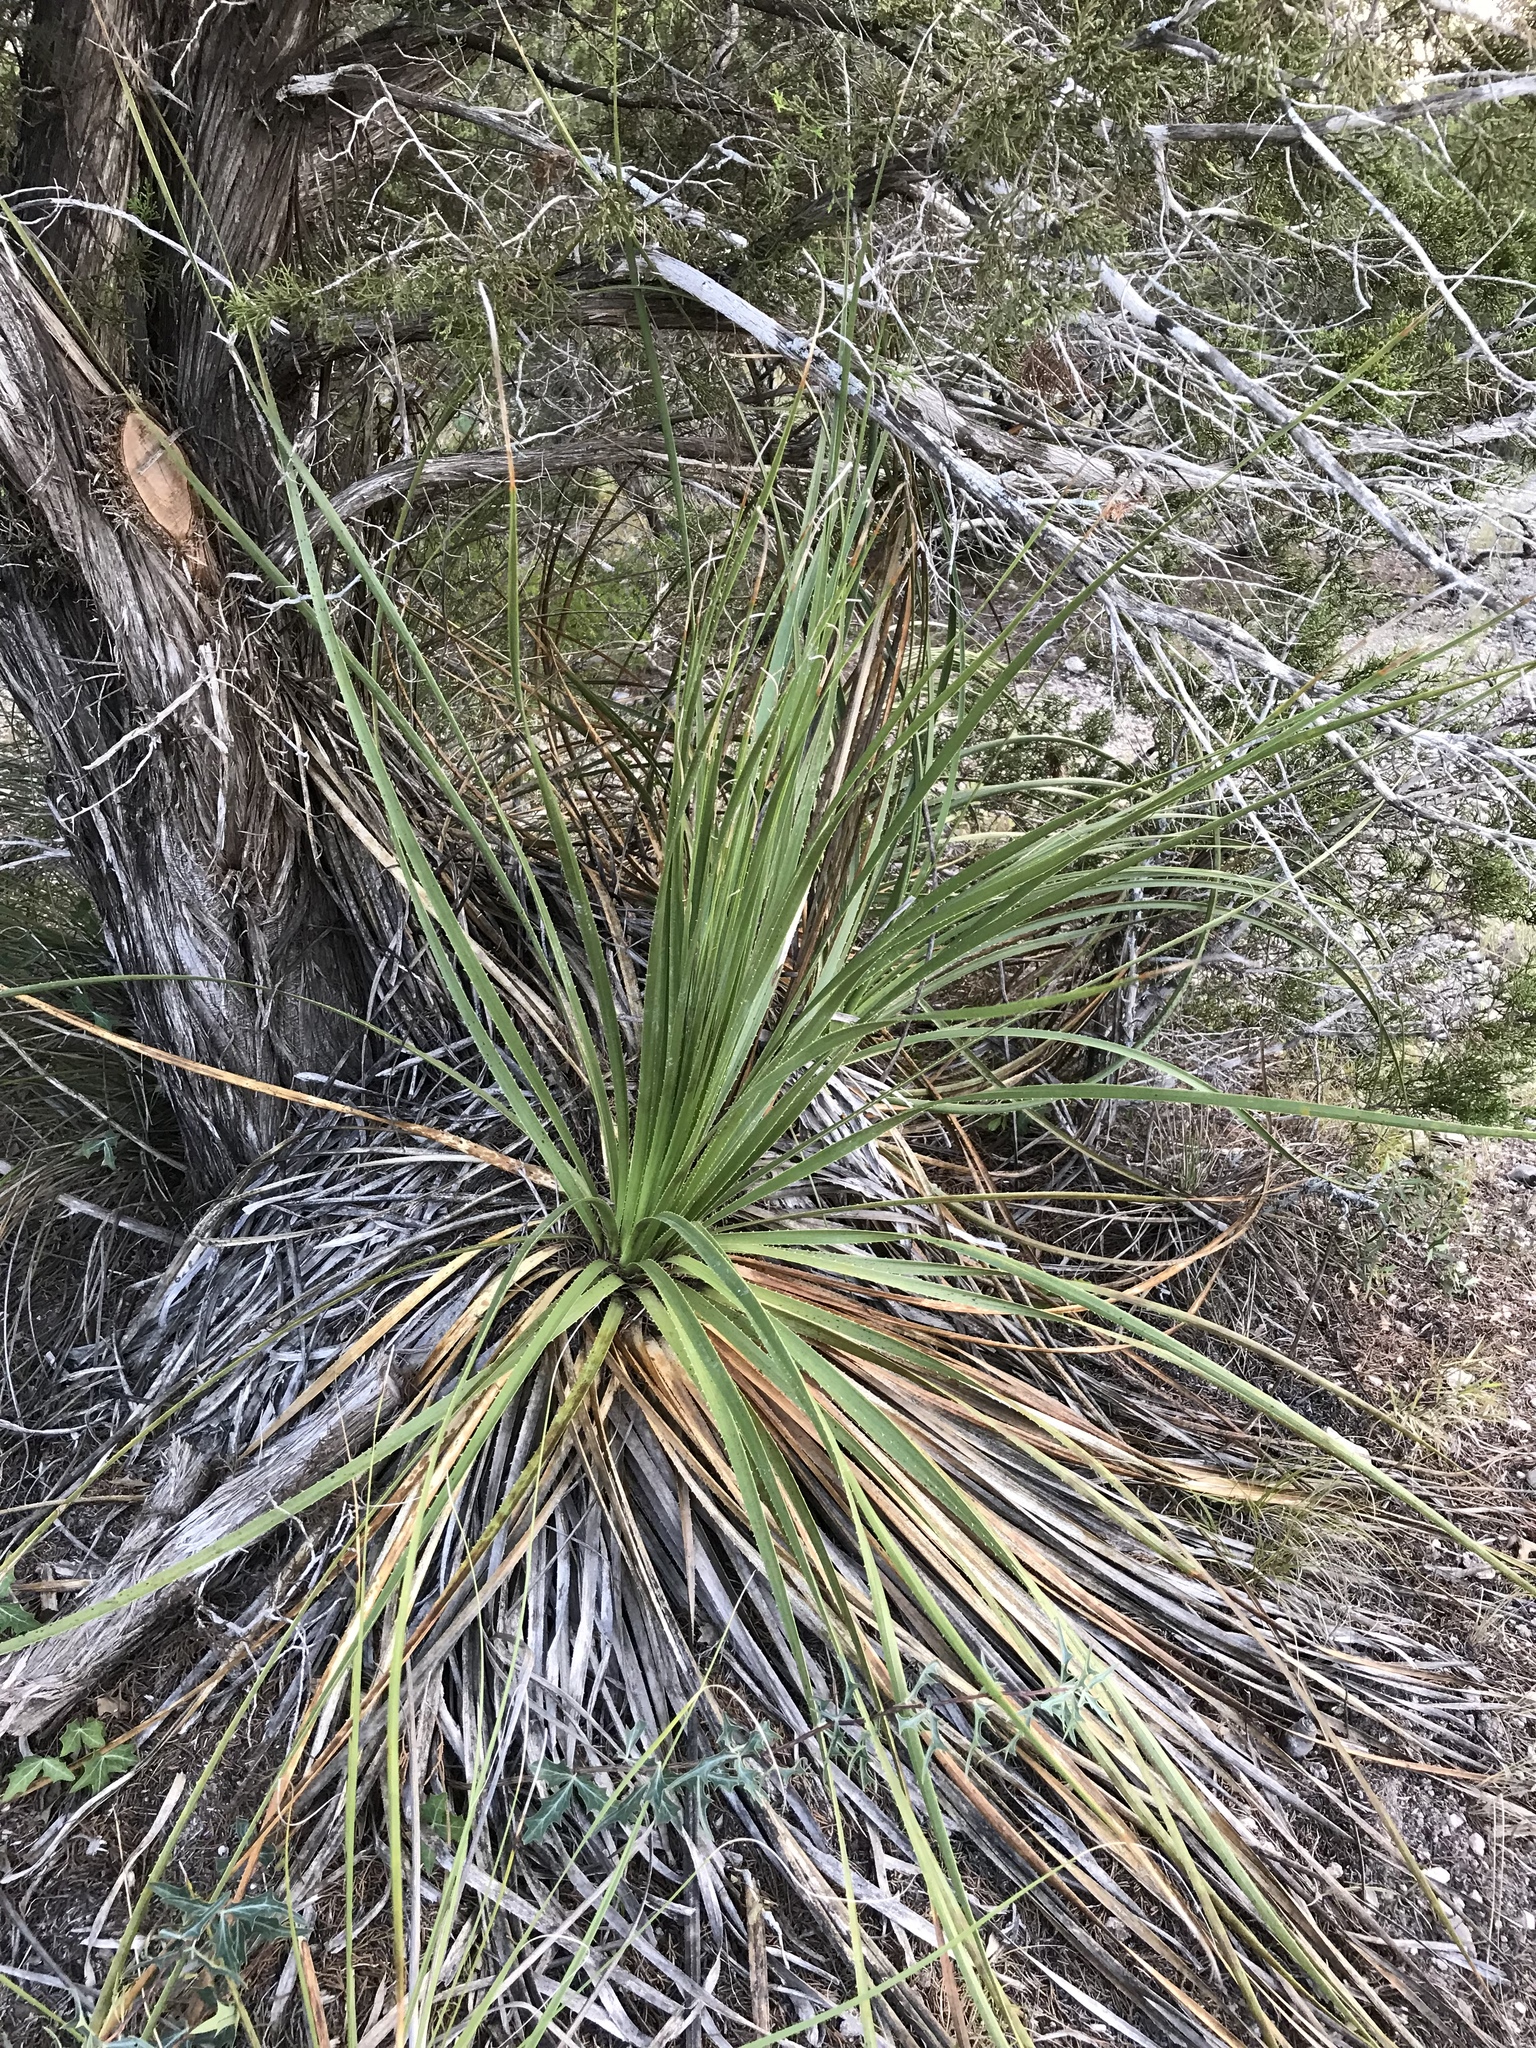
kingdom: Plantae
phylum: Tracheophyta
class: Liliopsida
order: Asparagales
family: Asparagaceae
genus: Dasylirion
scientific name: Dasylirion texanum
